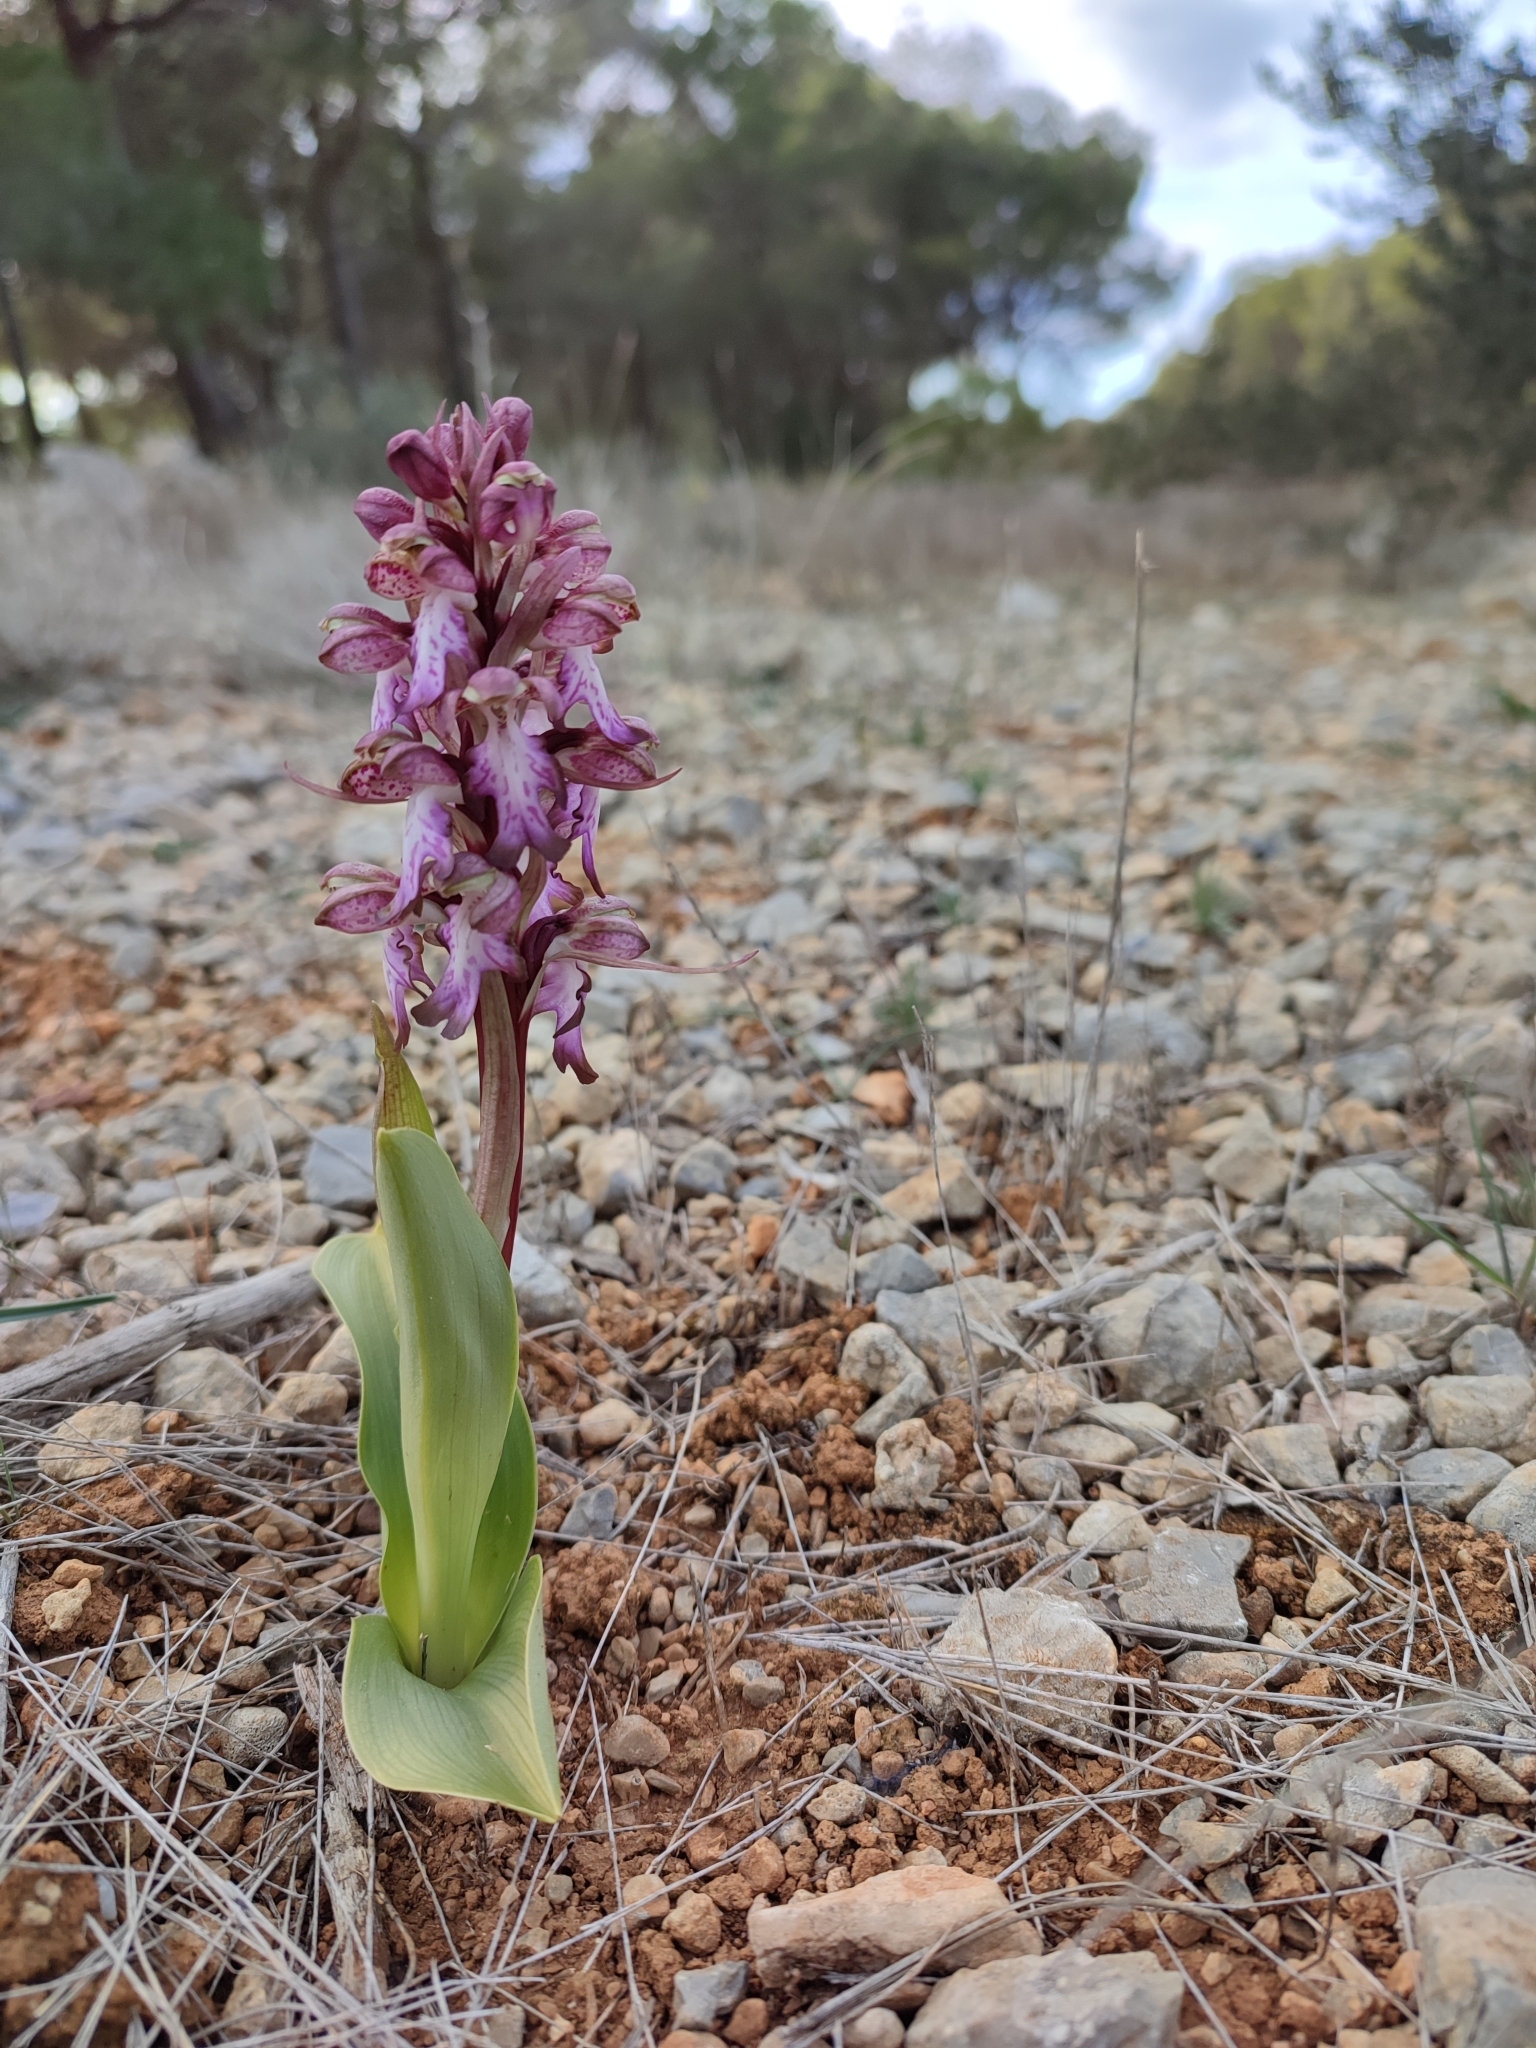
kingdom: Plantae
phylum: Tracheophyta
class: Liliopsida
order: Asparagales
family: Orchidaceae
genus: Himantoglossum
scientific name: Himantoglossum robertianum
